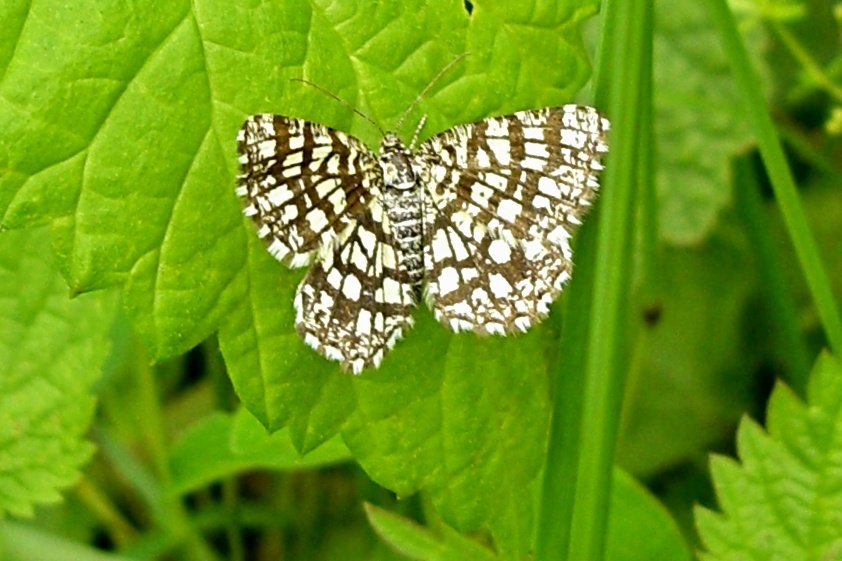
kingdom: Animalia
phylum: Arthropoda
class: Insecta
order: Lepidoptera
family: Geometridae
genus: Chiasmia
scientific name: Chiasmia clathrata
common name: Latticed heath
